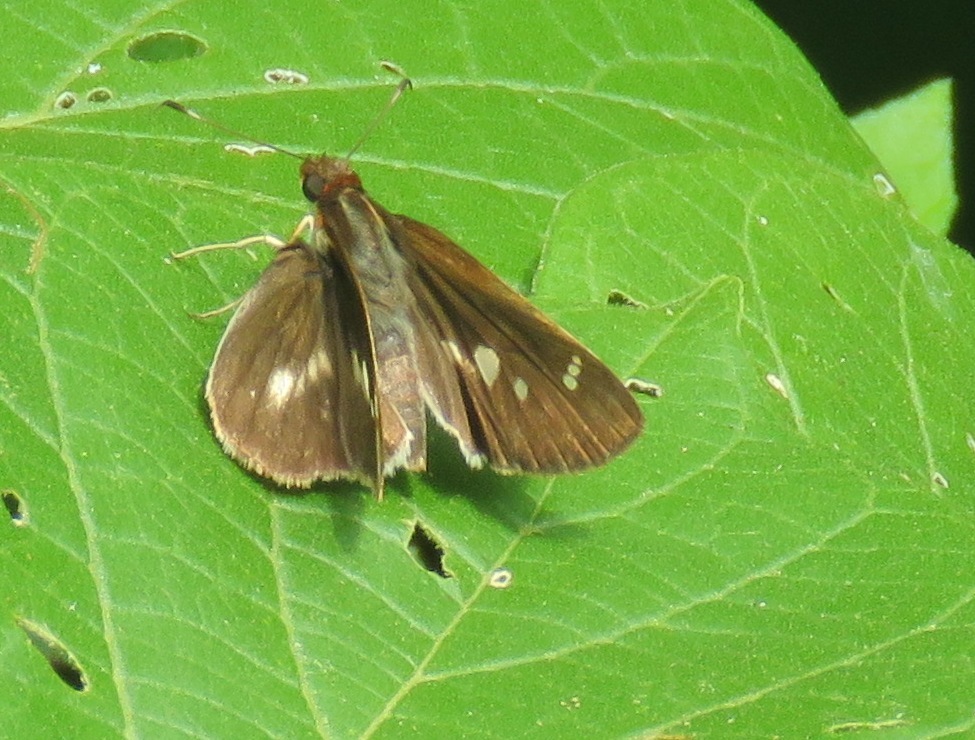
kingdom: Animalia
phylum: Arthropoda
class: Insecta
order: Lepidoptera
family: Hesperiidae
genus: Troyus
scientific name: Troyus fantasos
